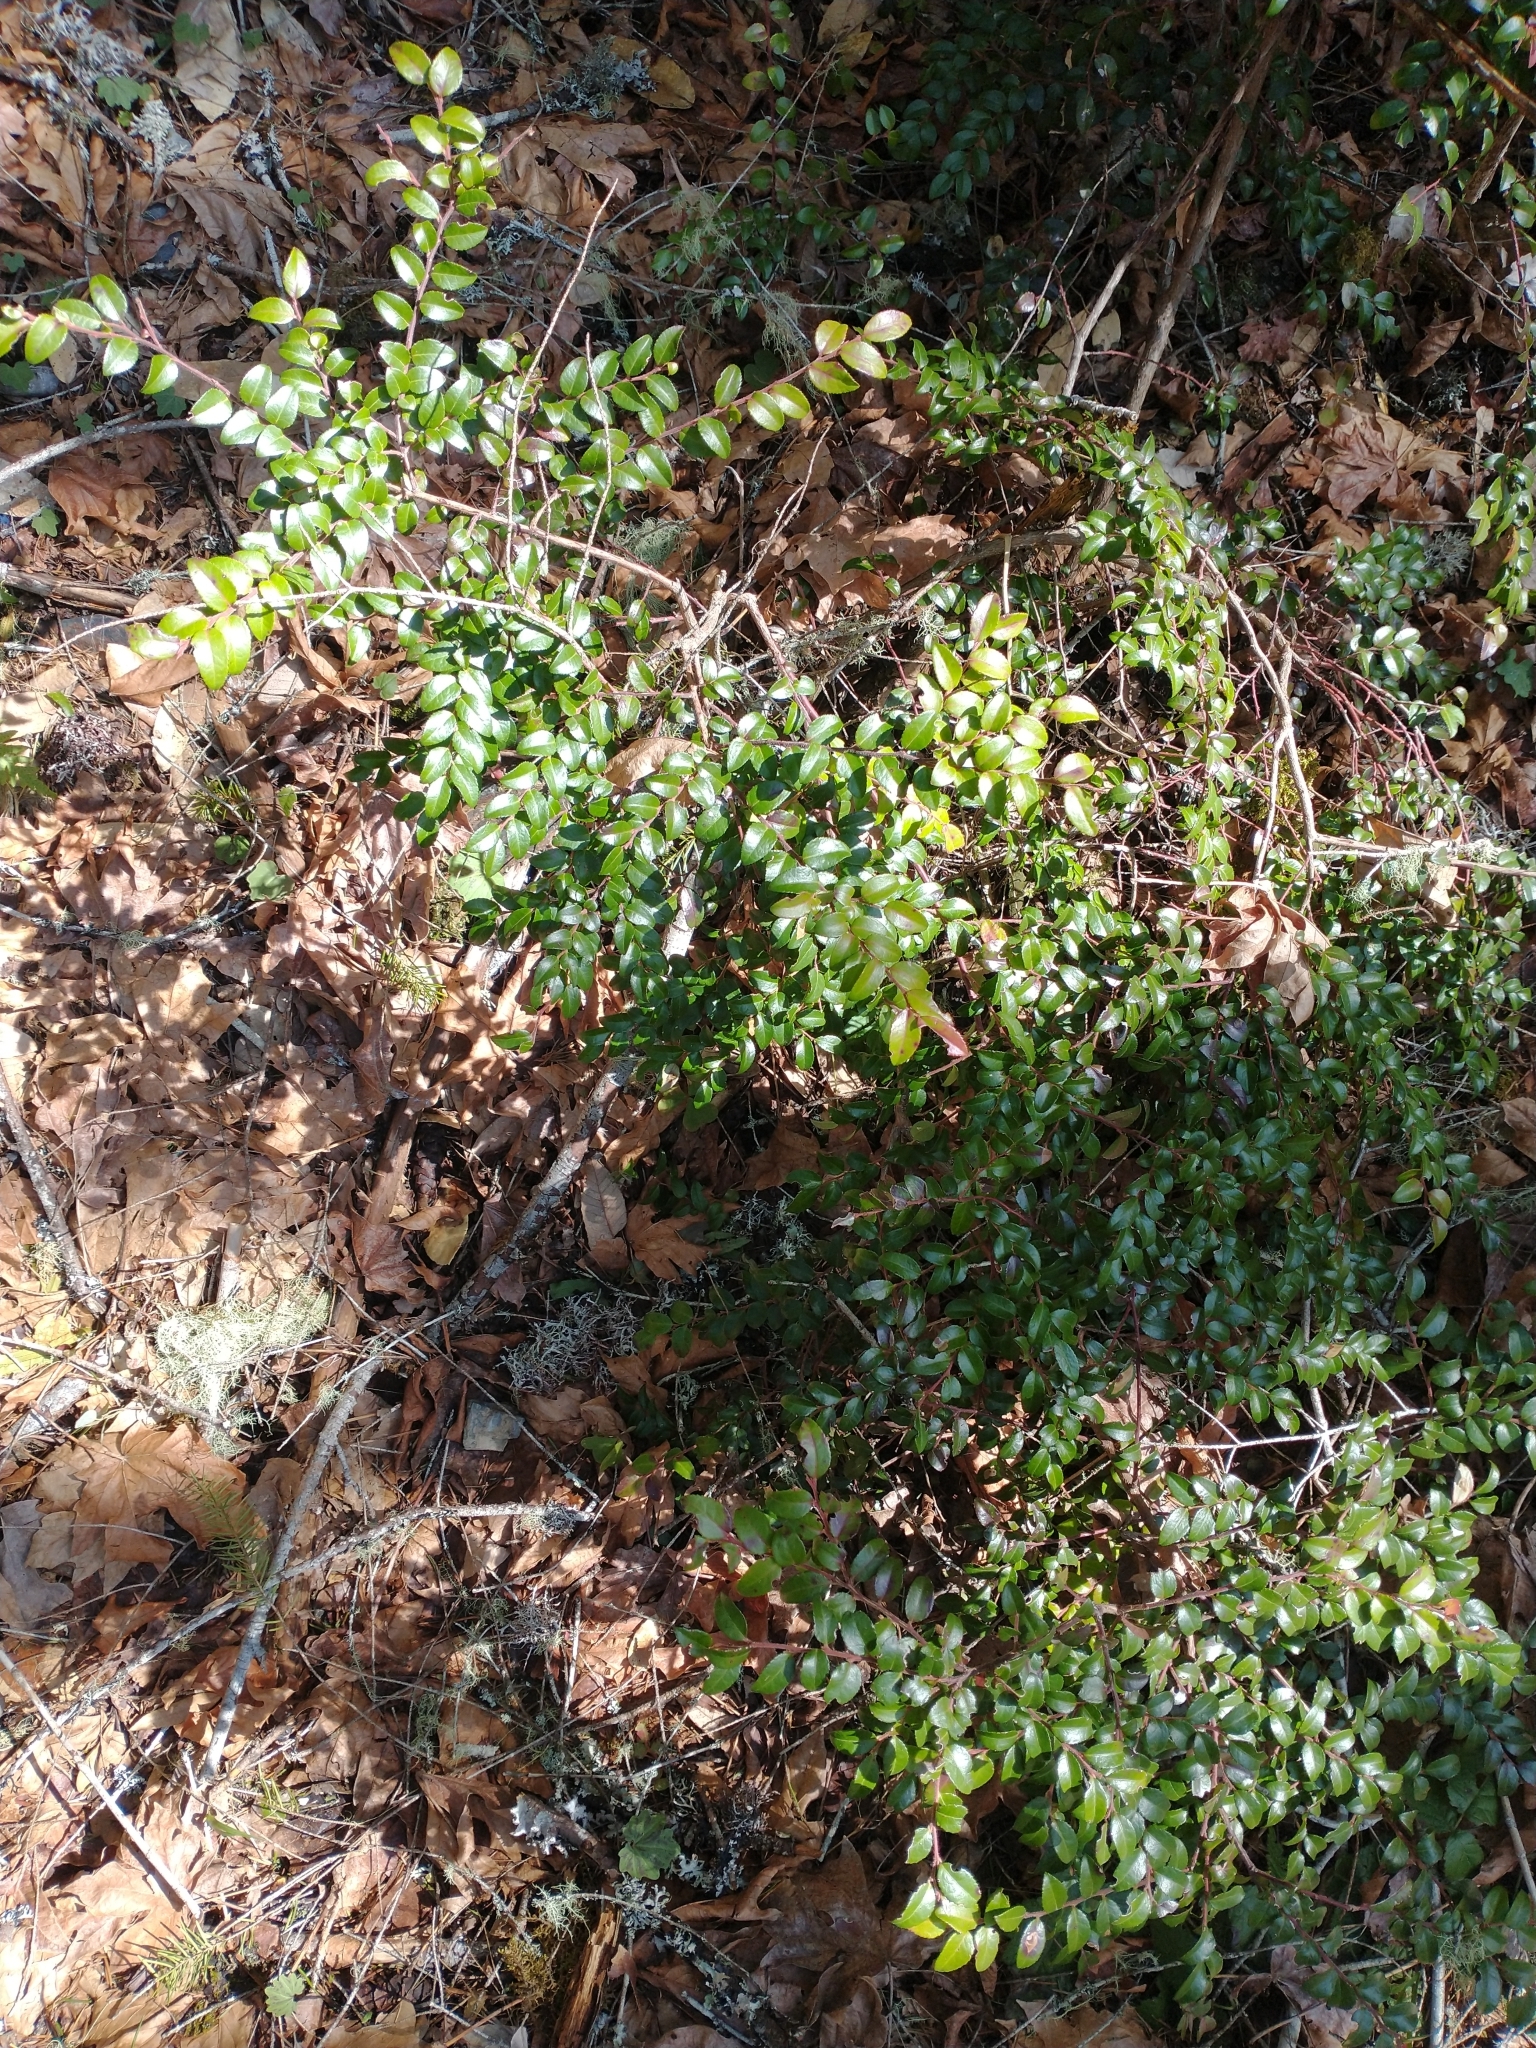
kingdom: Plantae
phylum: Tracheophyta
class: Magnoliopsida
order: Ericales
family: Ericaceae
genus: Vaccinium
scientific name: Vaccinium ovatum
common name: California-huckleberry
